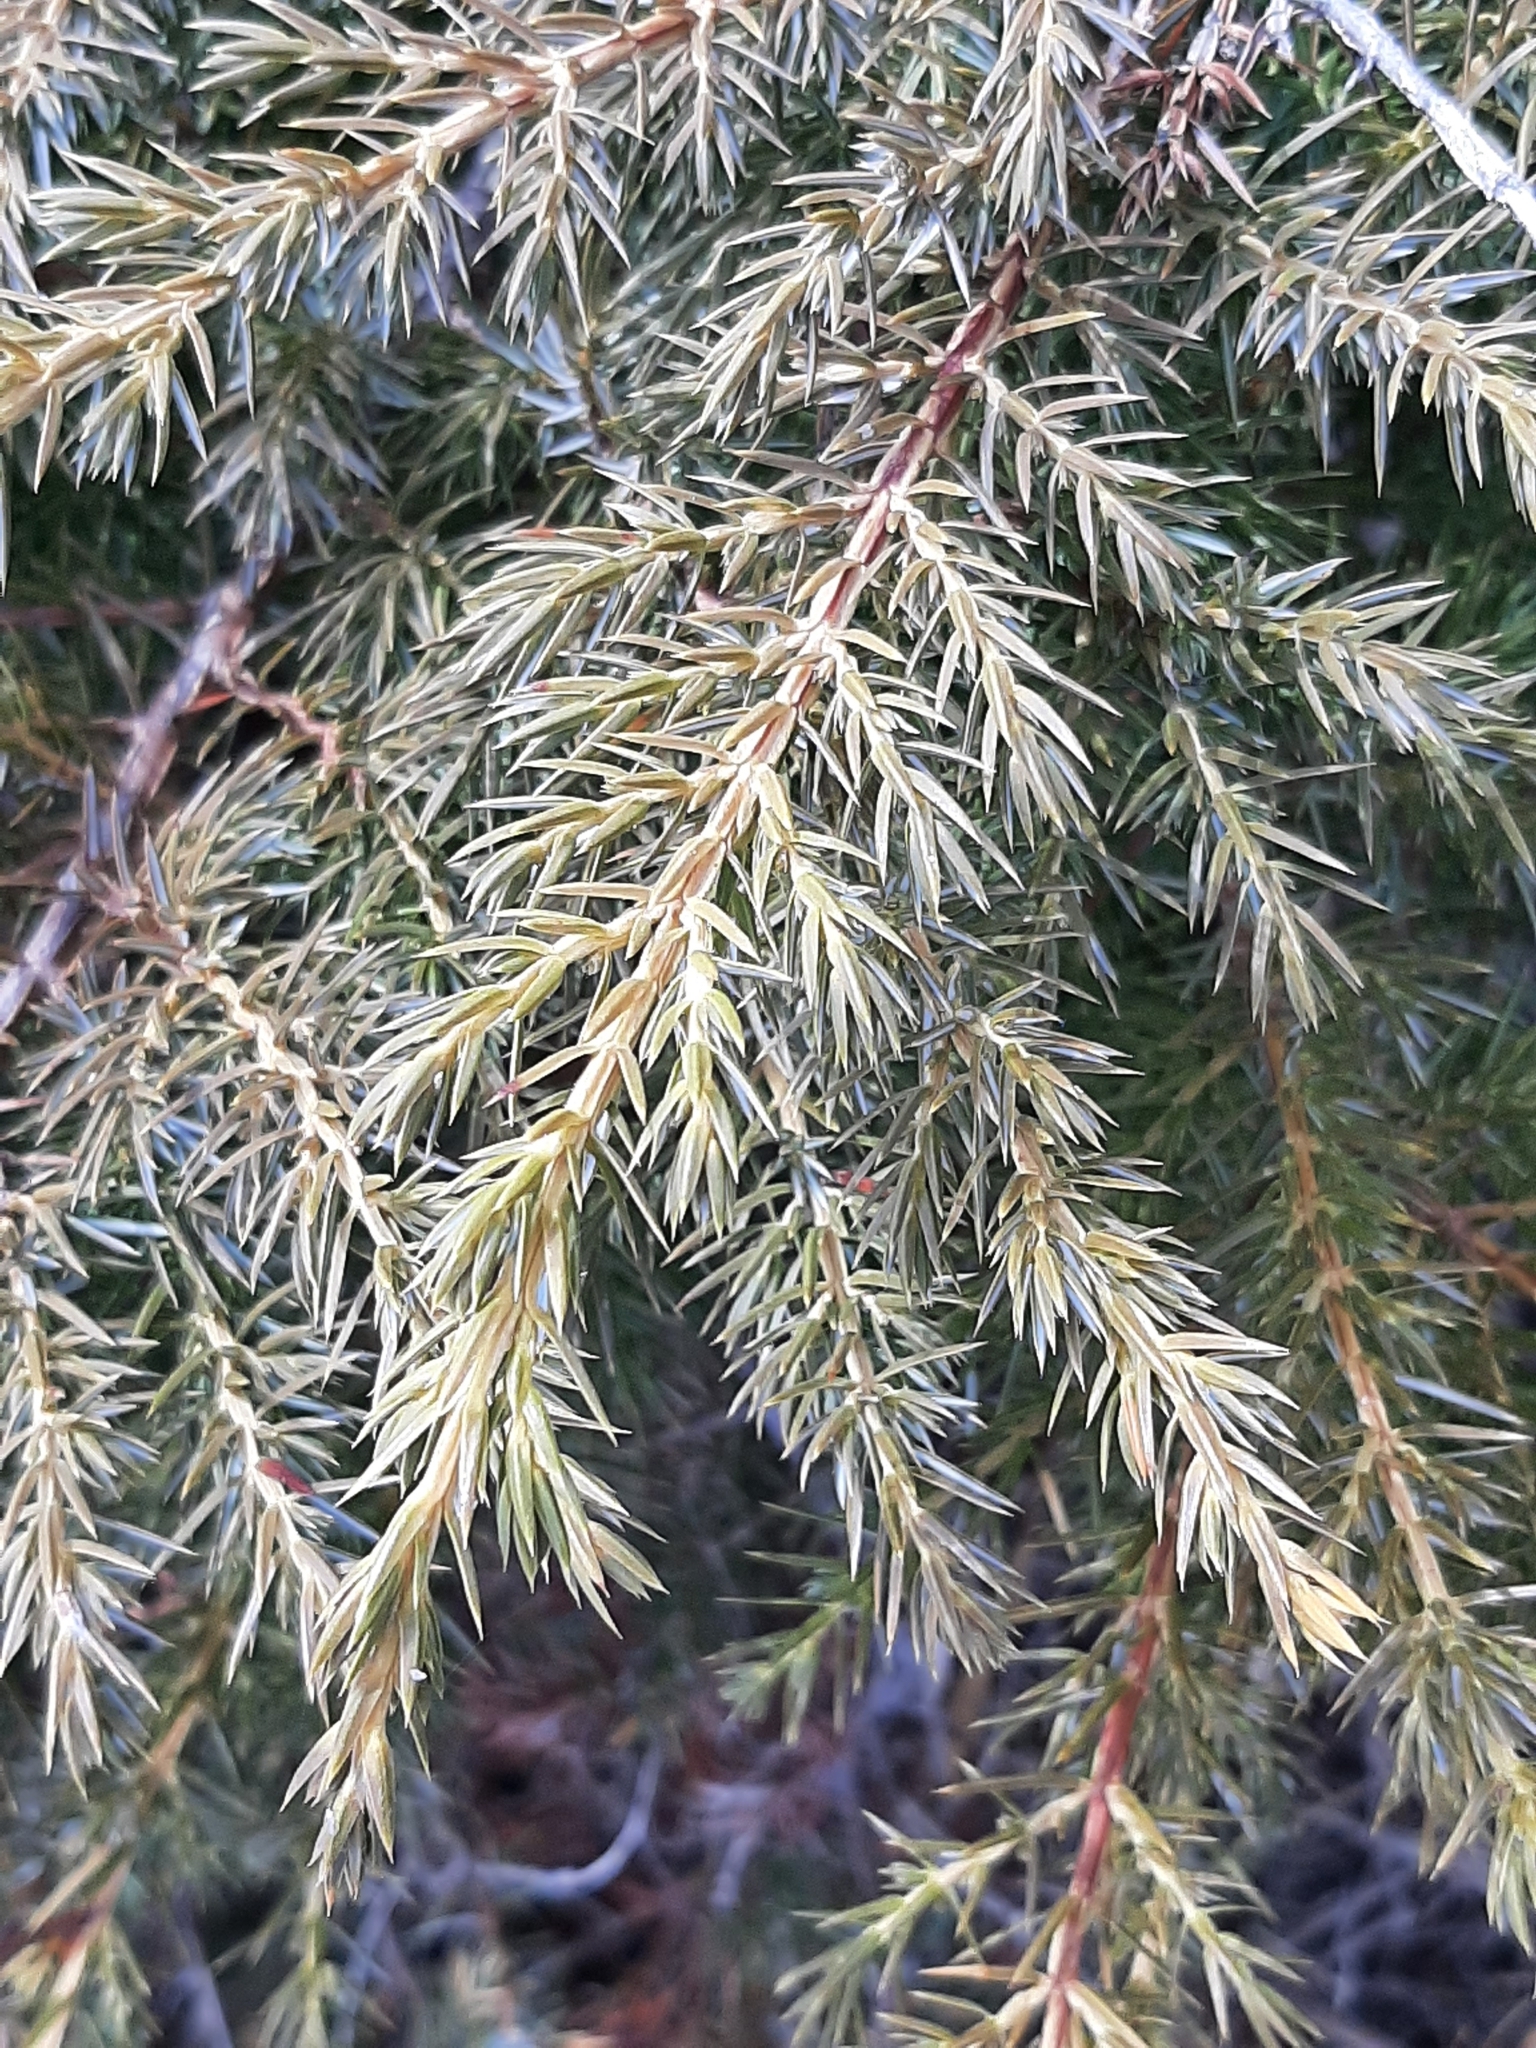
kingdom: Plantae
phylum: Tracheophyta
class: Pinopsida
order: Pinales
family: Cupressaceae
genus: Juniperus
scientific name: Juniperus communis
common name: Common juniper
